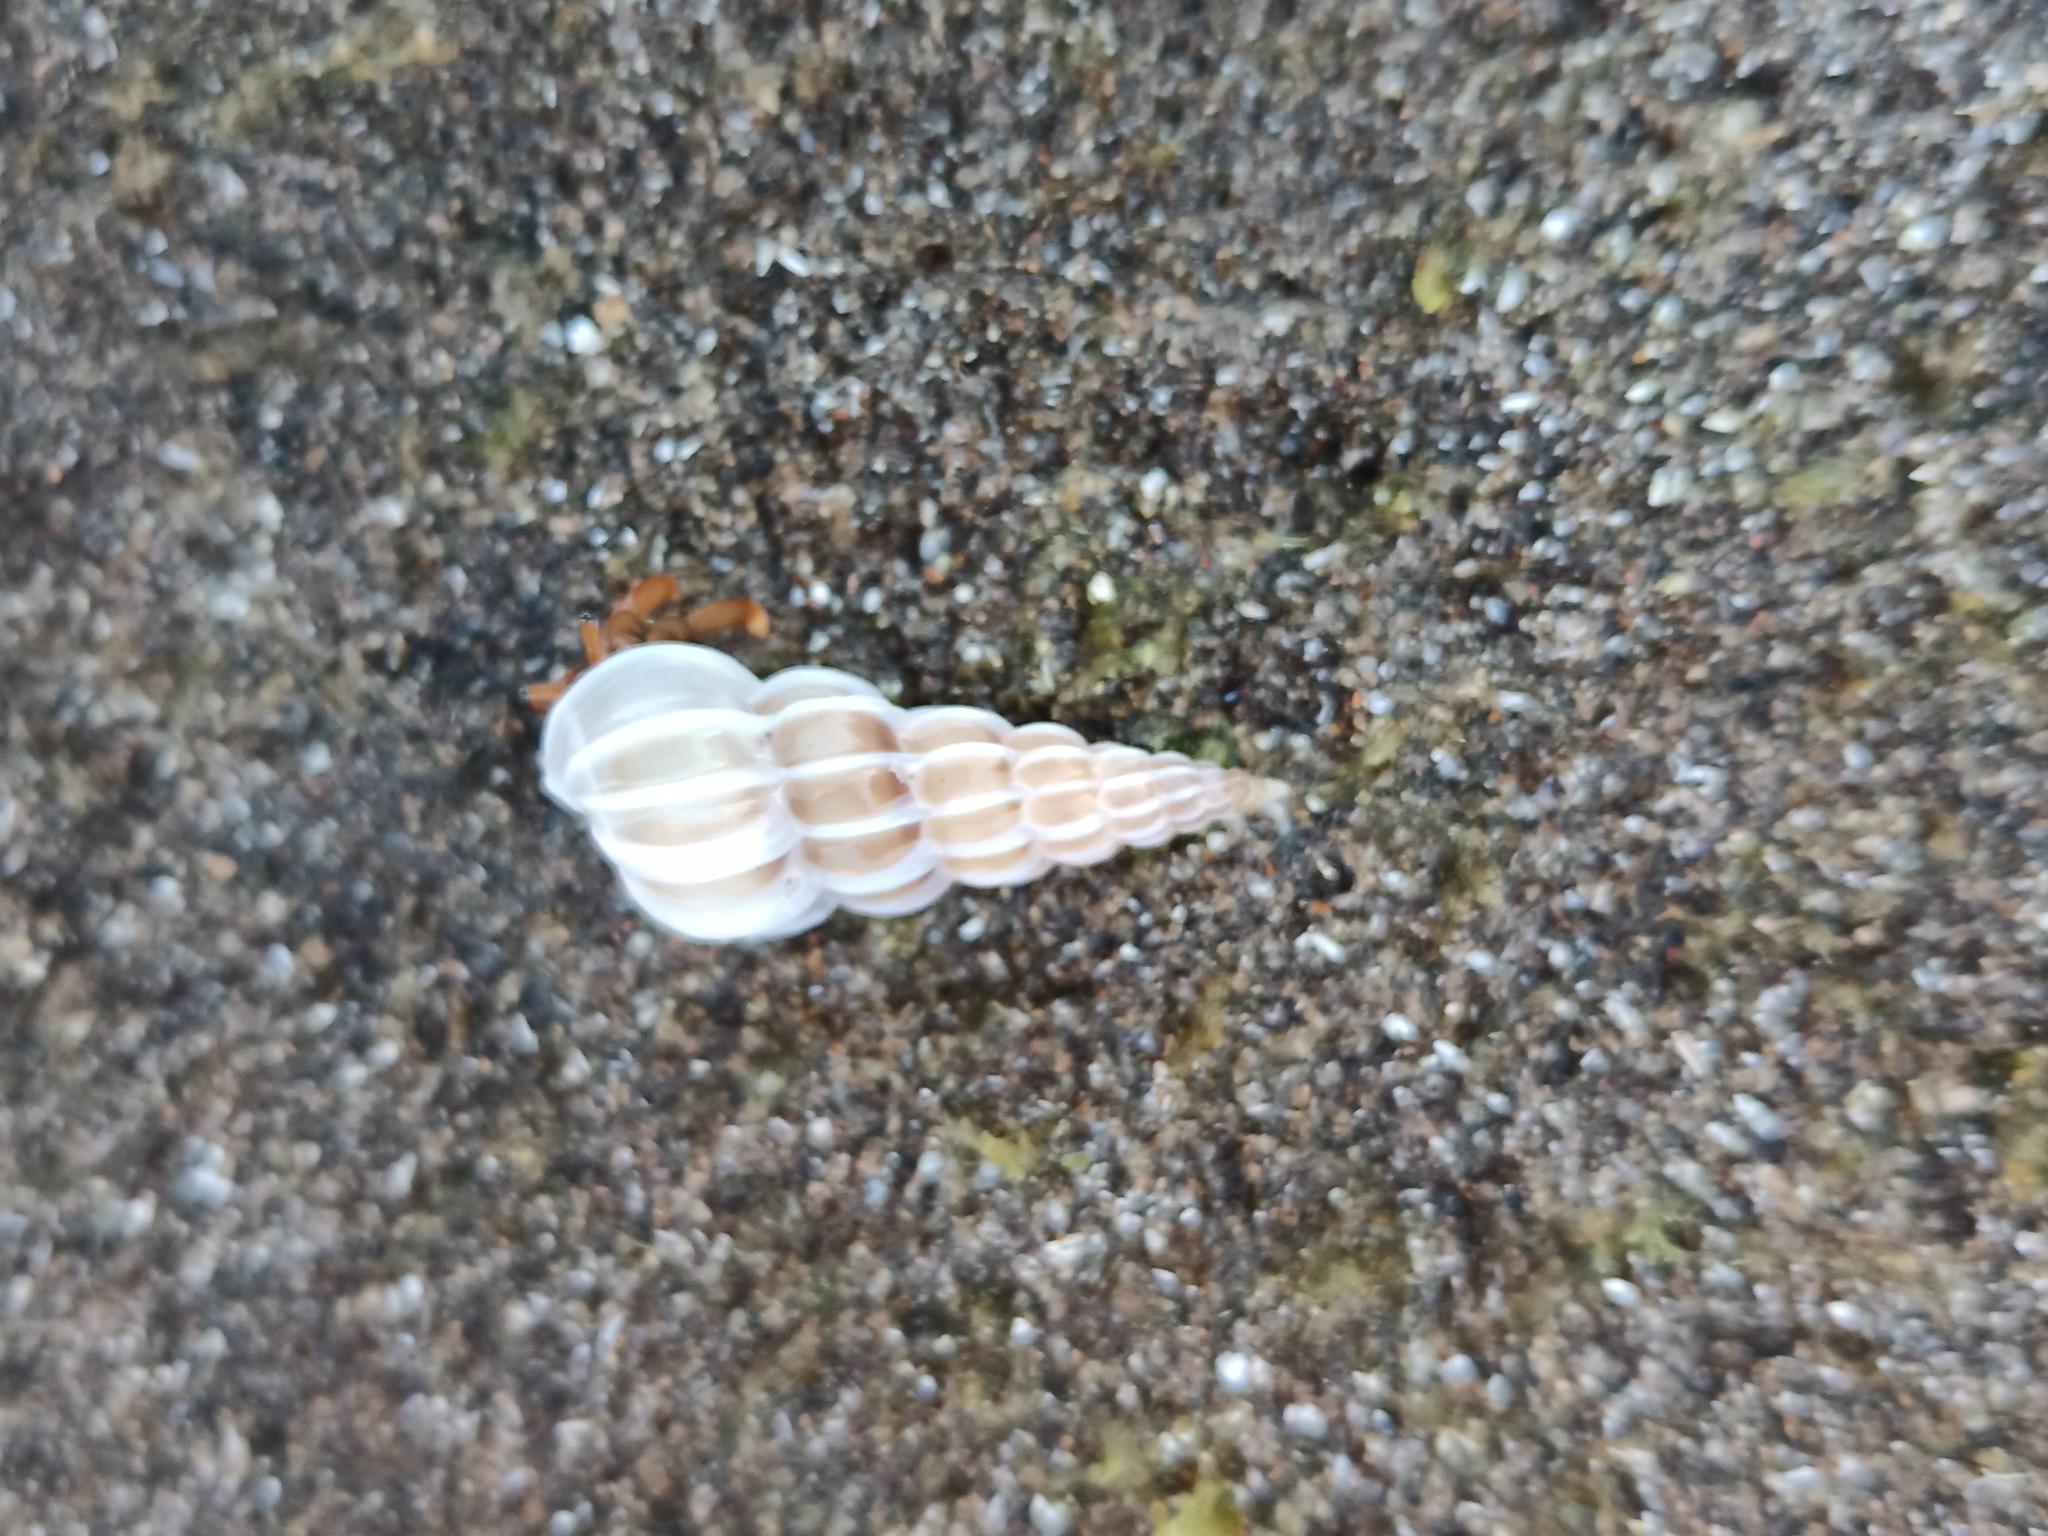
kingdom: Animalia
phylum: Mollusca
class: Gastropoda
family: Epitoniidae
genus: Gyroscala
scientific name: Gyroscala commutata
